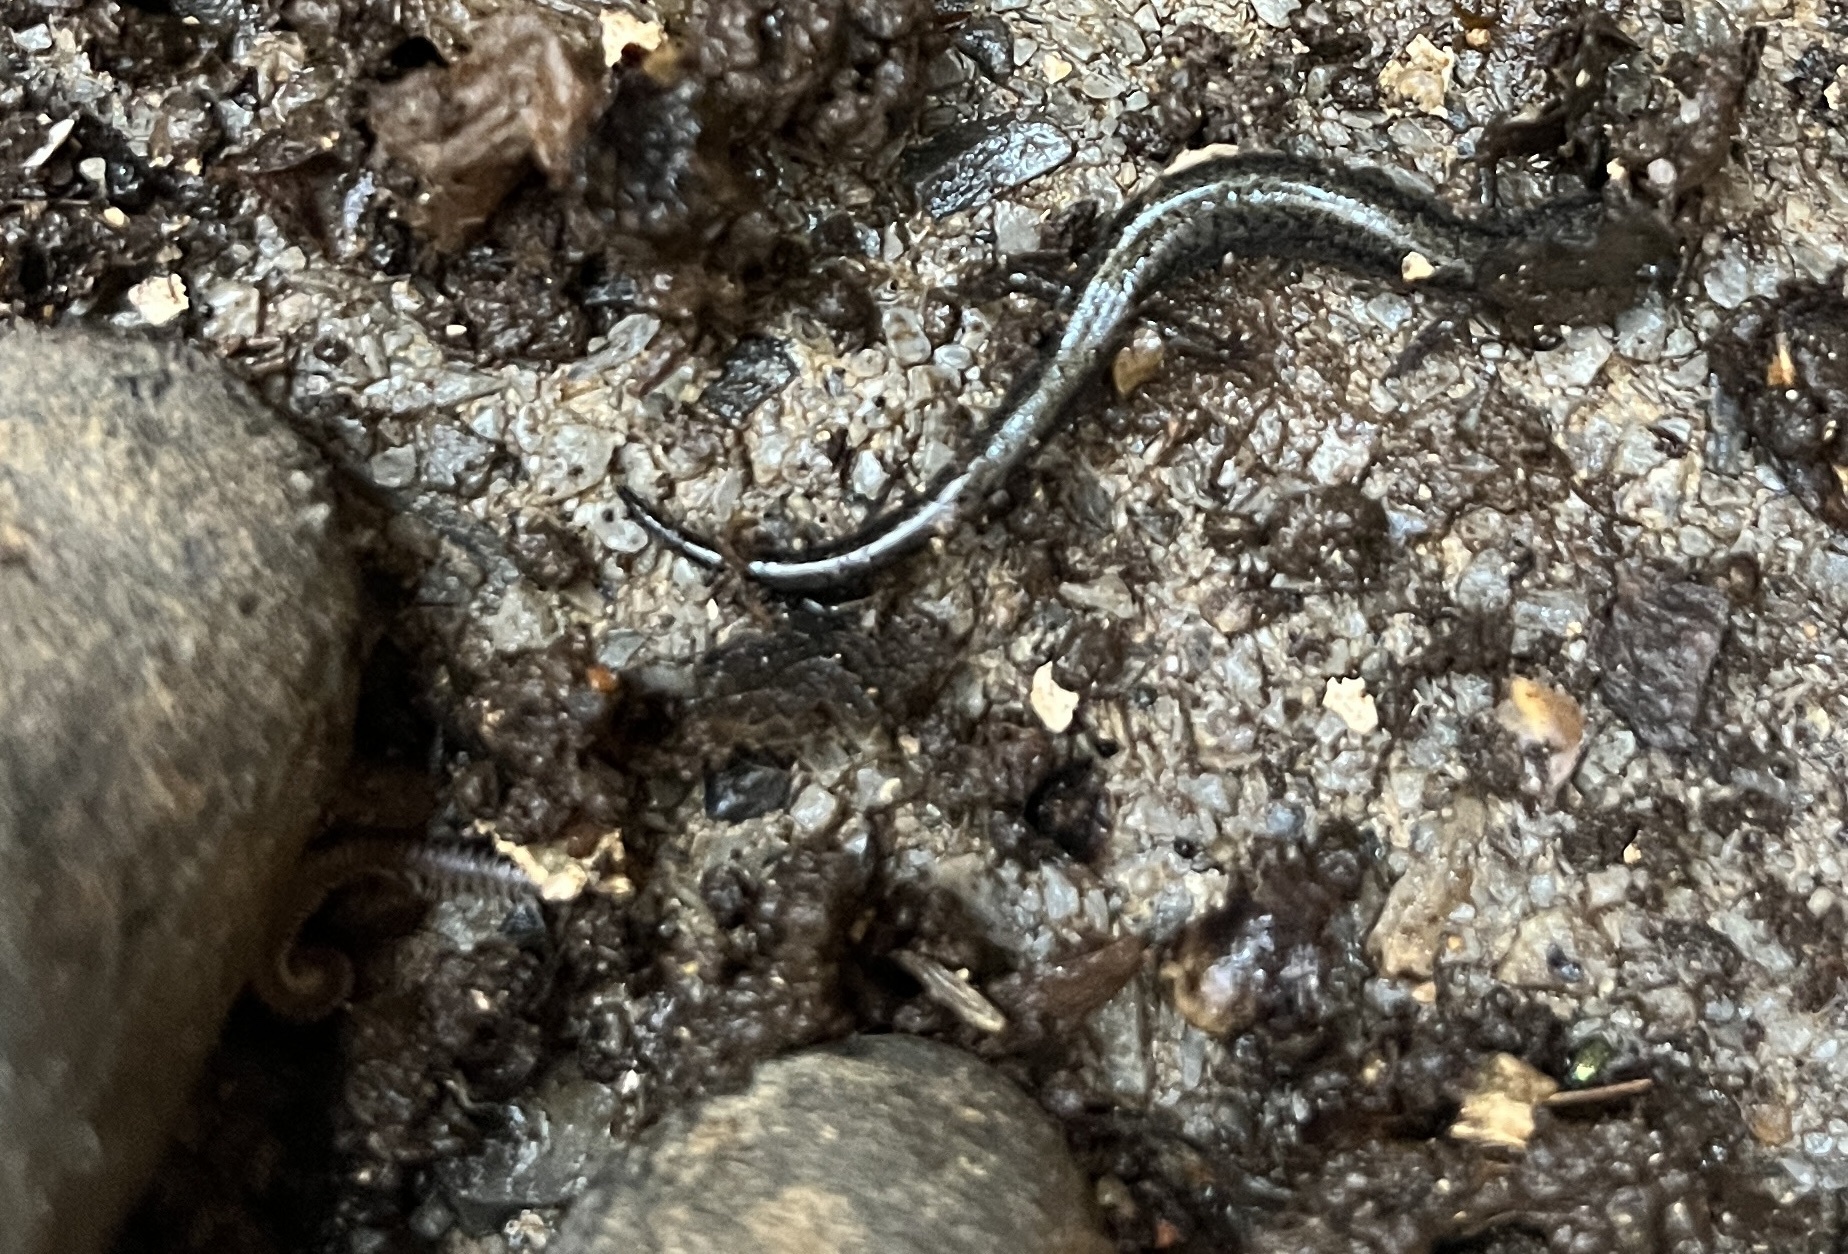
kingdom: Animalia
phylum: Chordata
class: Amphibia
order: Caudata
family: Plethodontidae
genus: Plethodon
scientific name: Plethodon cinereus
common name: Redback salamander
